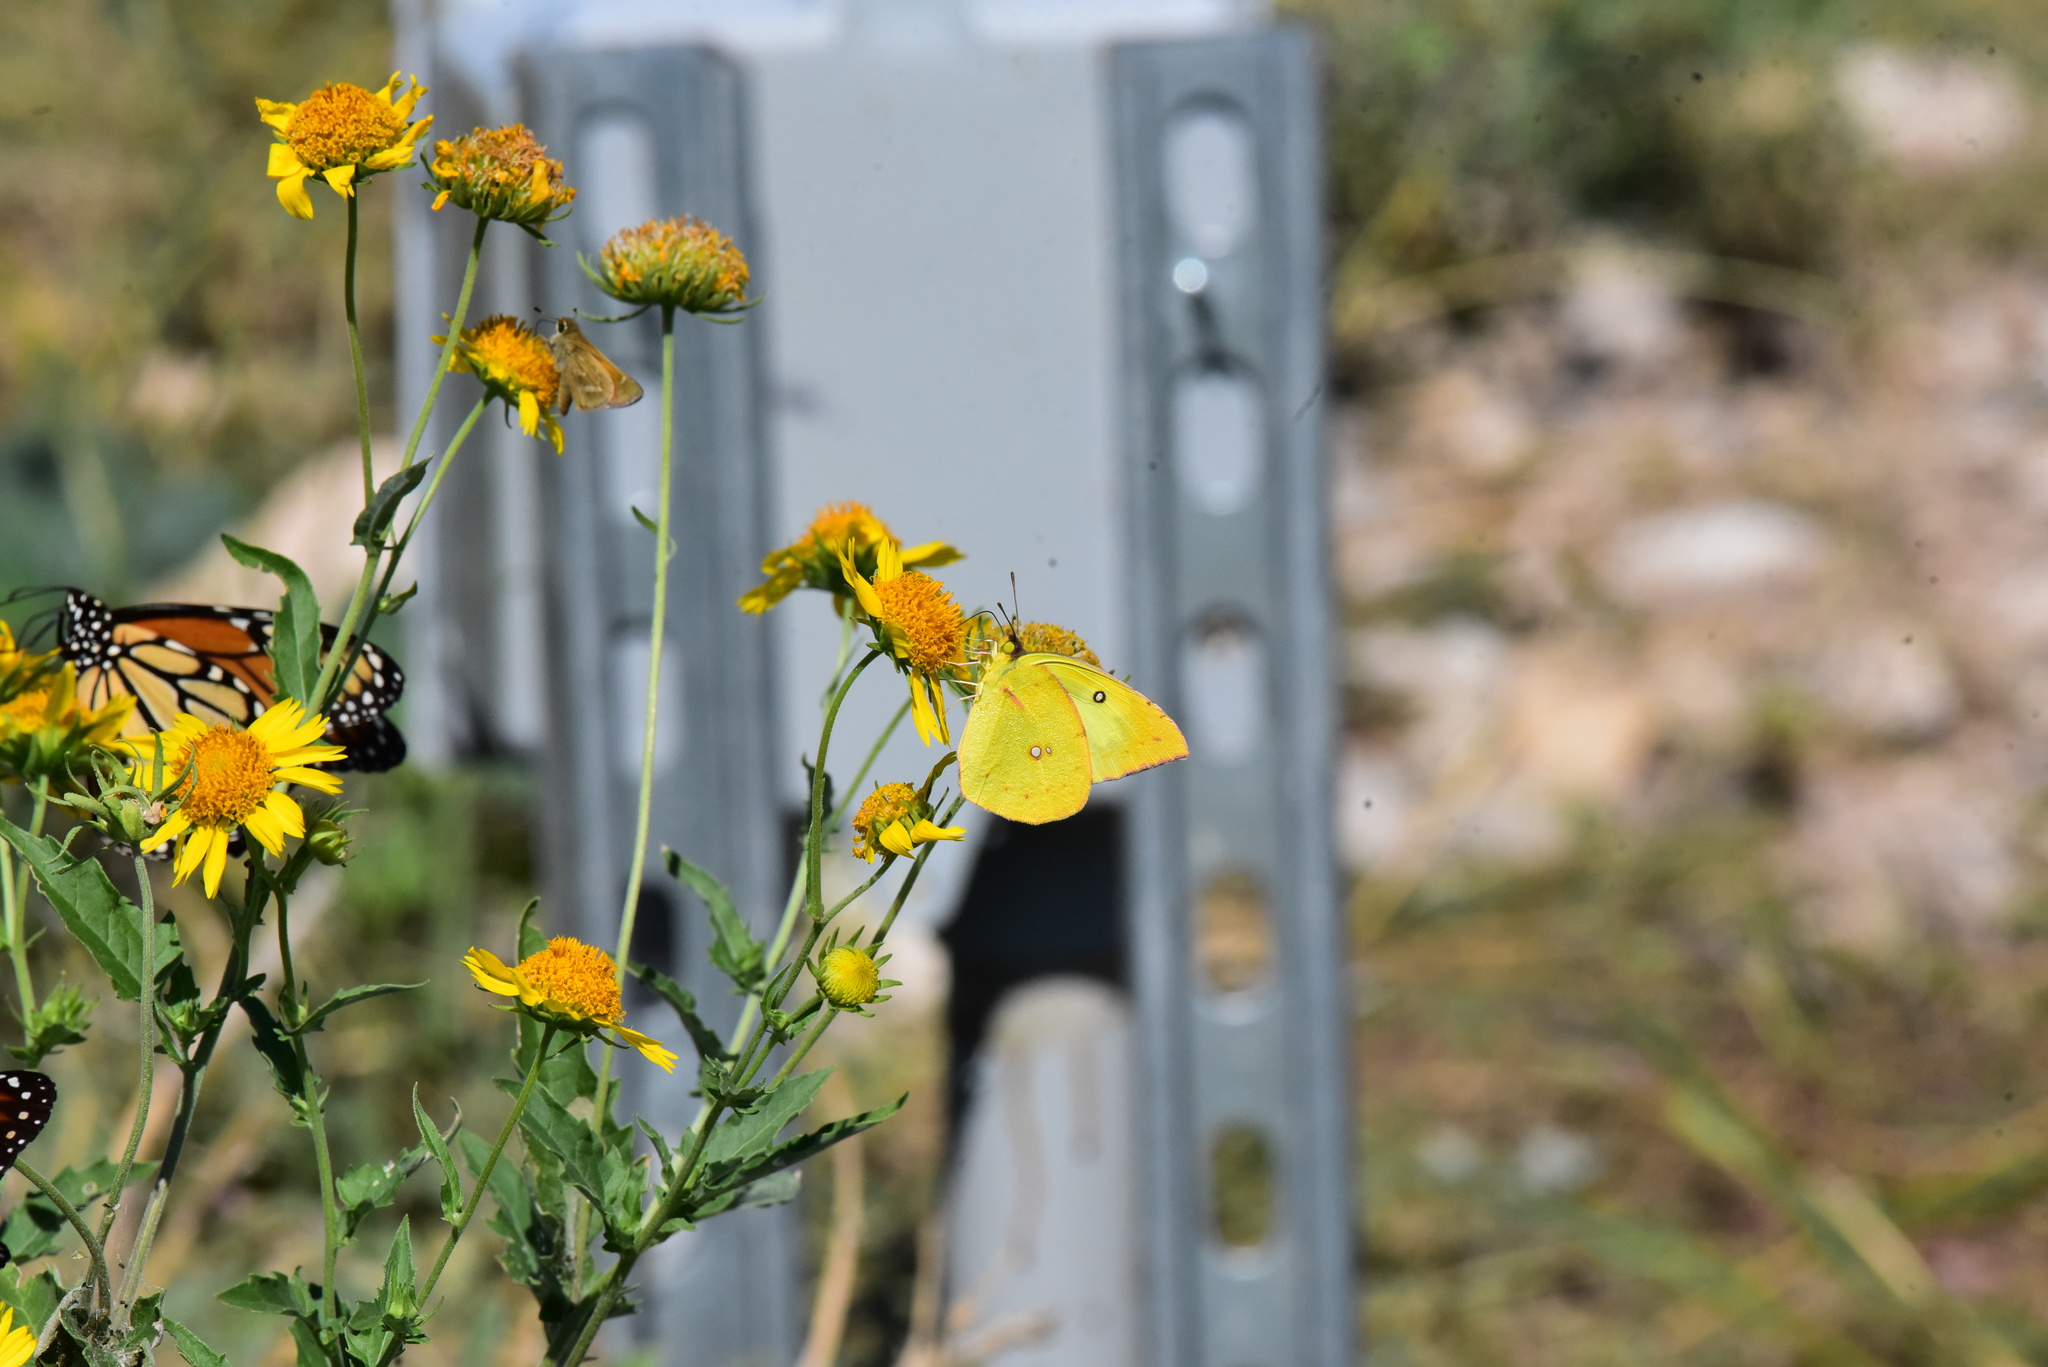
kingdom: Animalia
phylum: Arthropoda
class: Insecta
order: Lepidoptera
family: Pieridae
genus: Zerene
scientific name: Zerene cesonia
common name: Southern dogface
